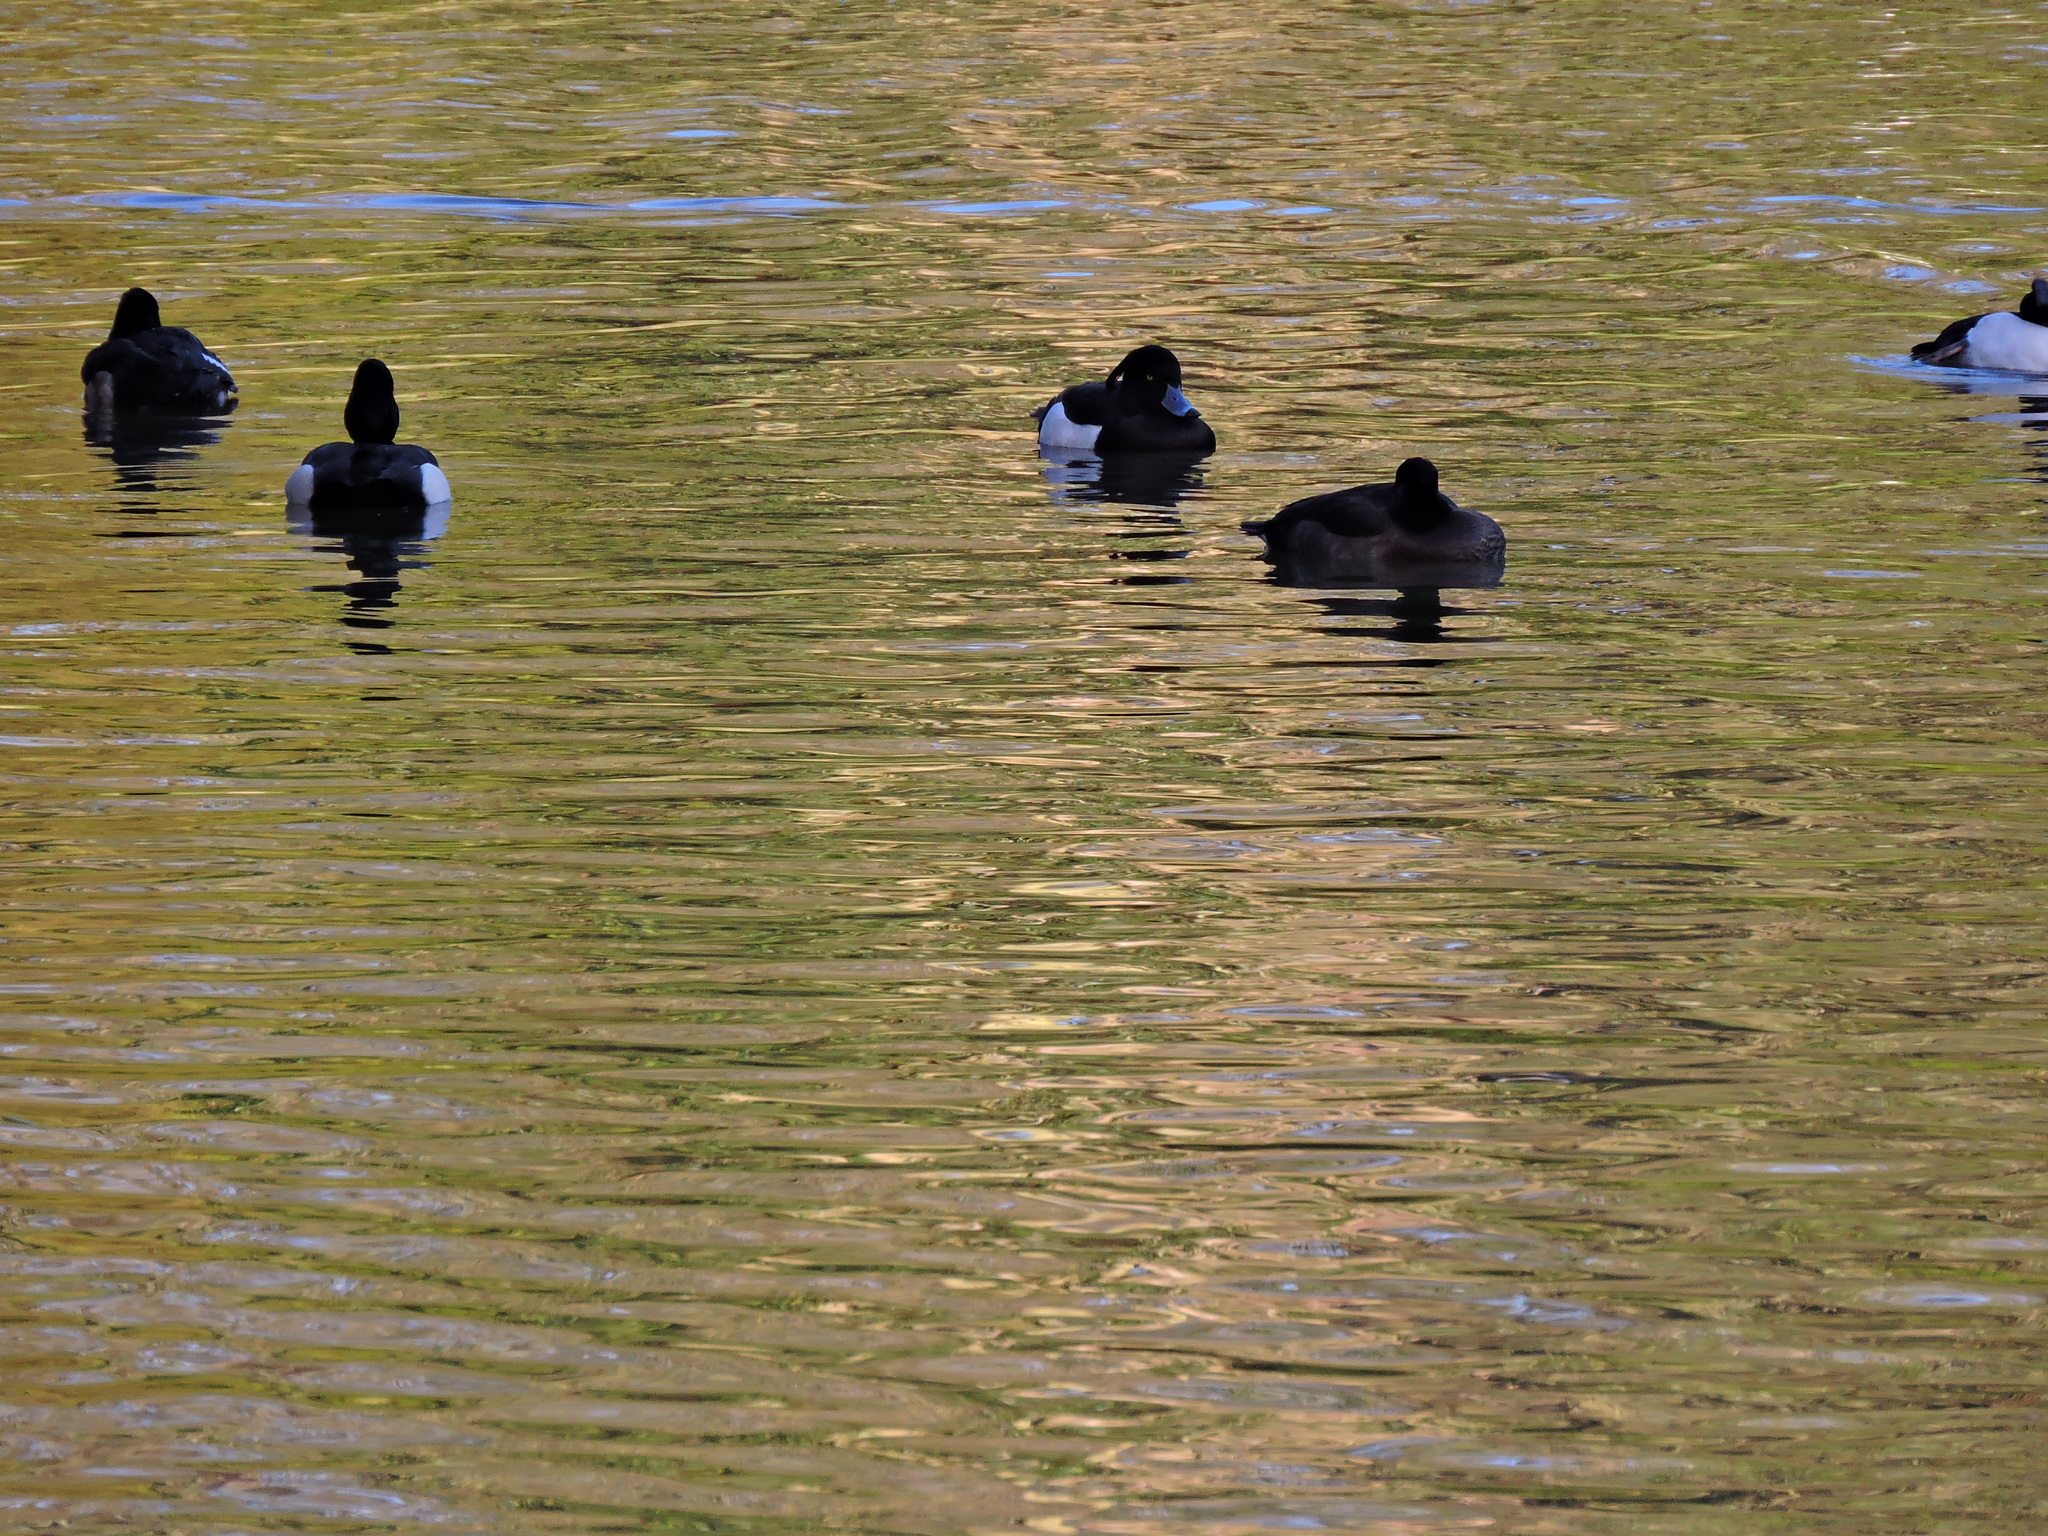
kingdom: Animalia
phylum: Chordata
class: Aves
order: Anseriformes
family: Anatidae
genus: Aythya
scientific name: Aythya fuligula
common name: Tufted duck
